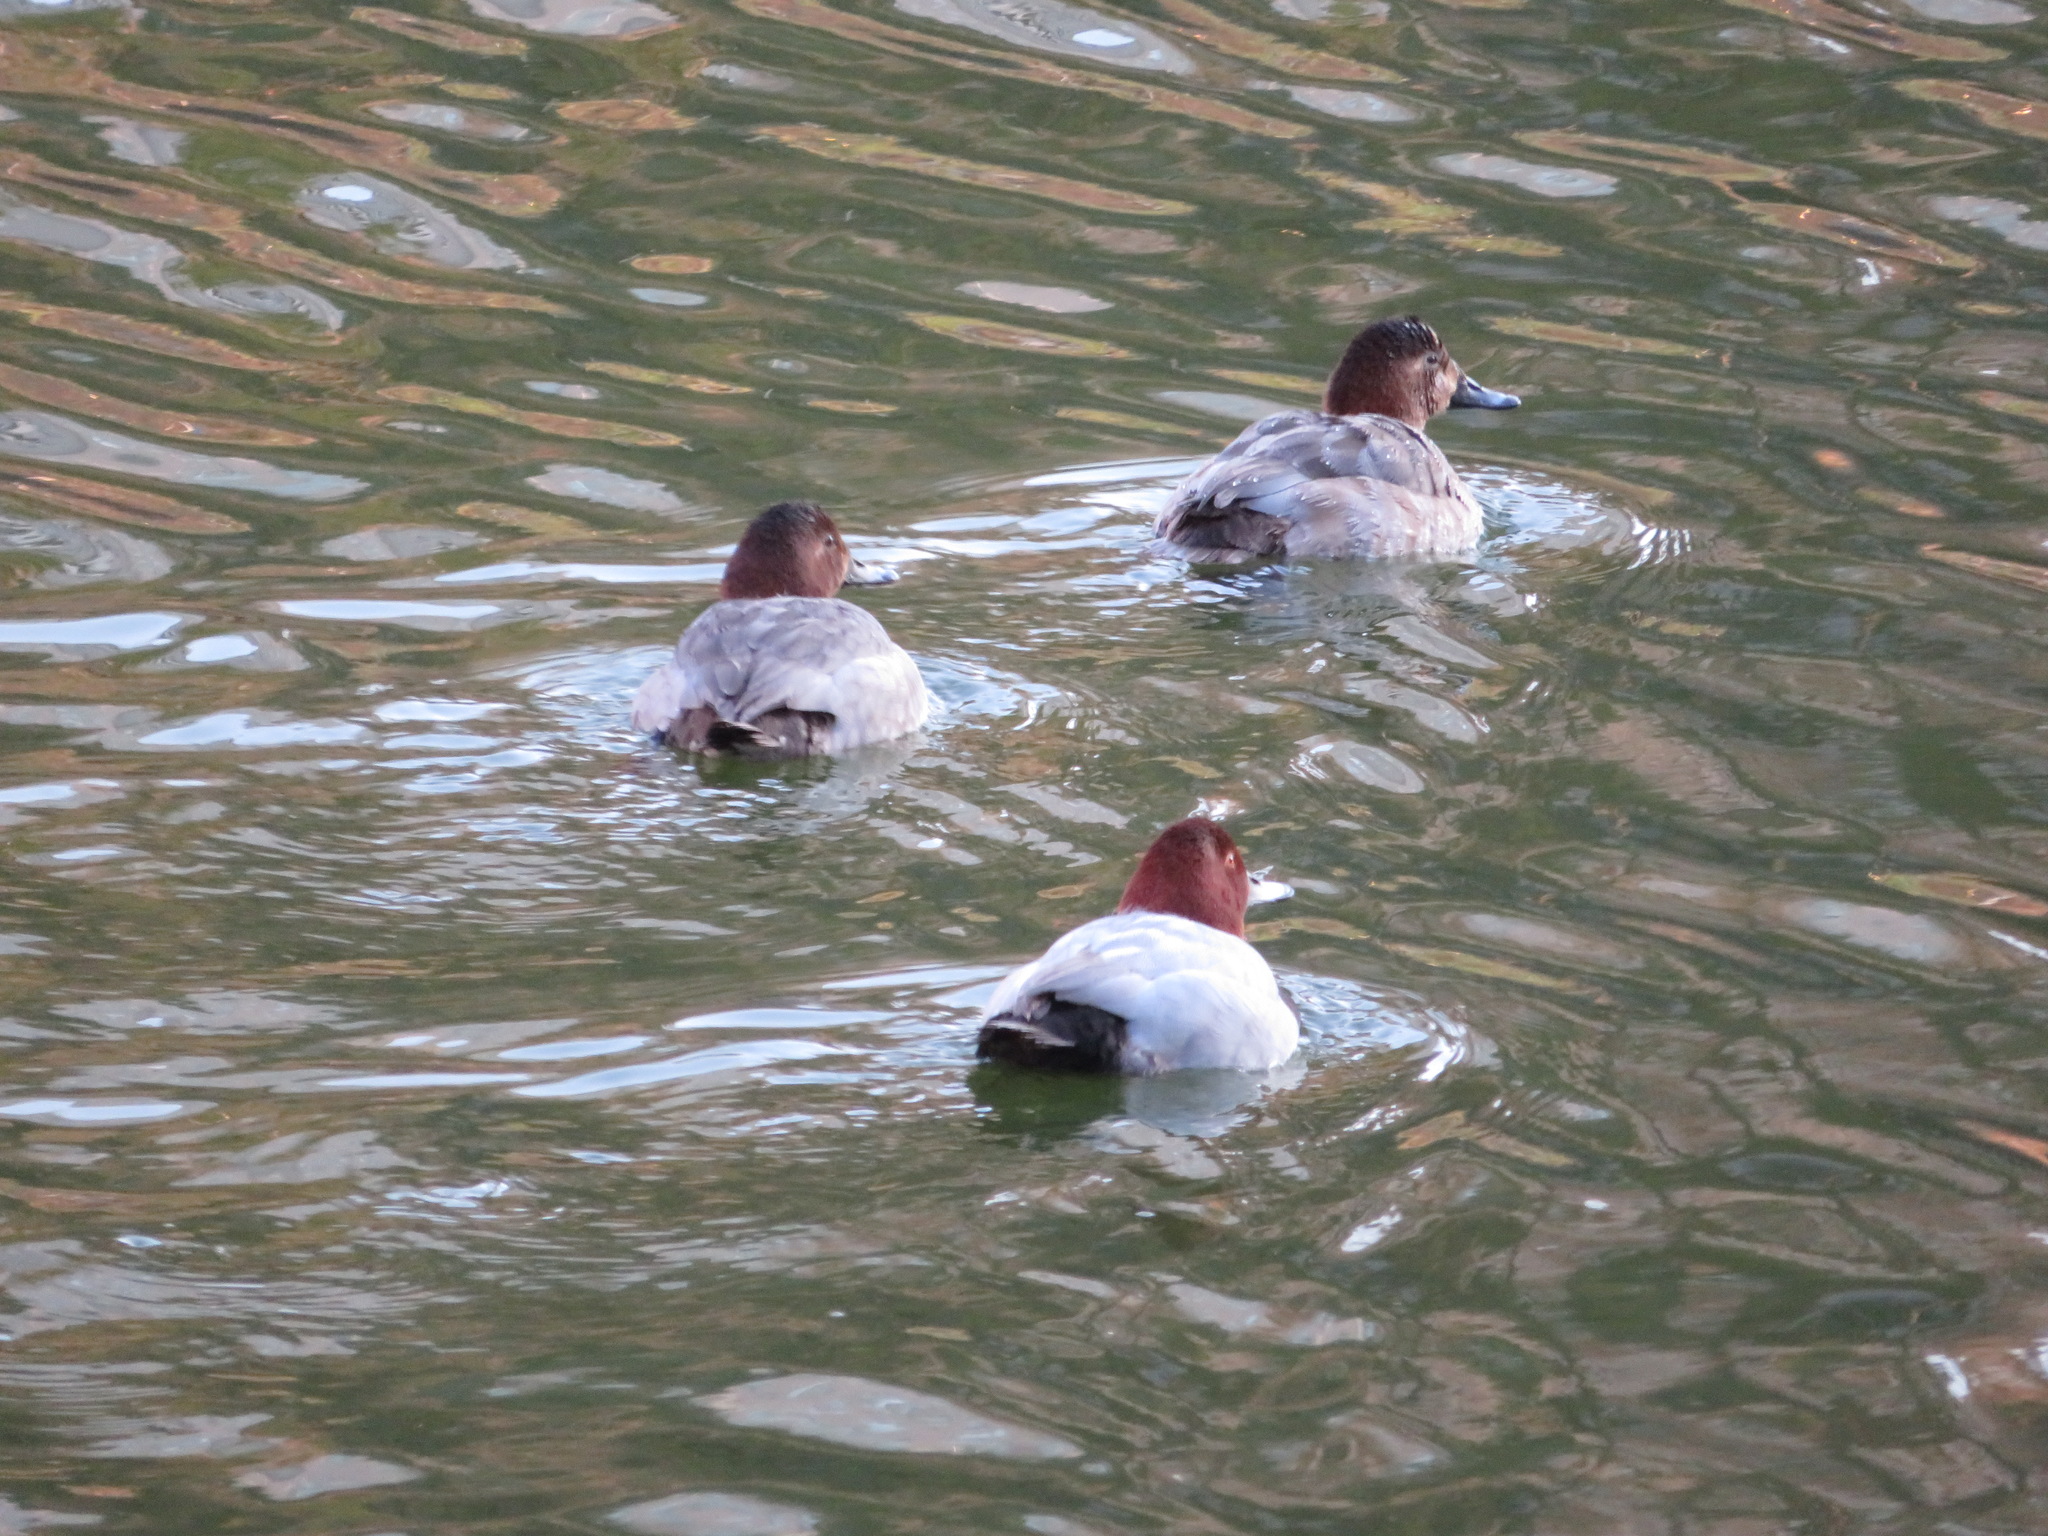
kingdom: Animalia
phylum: Chordata
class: Aves
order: Anseriformes
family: Anatidae
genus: Aythya
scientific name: Aythya ferina
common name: Common pochard
